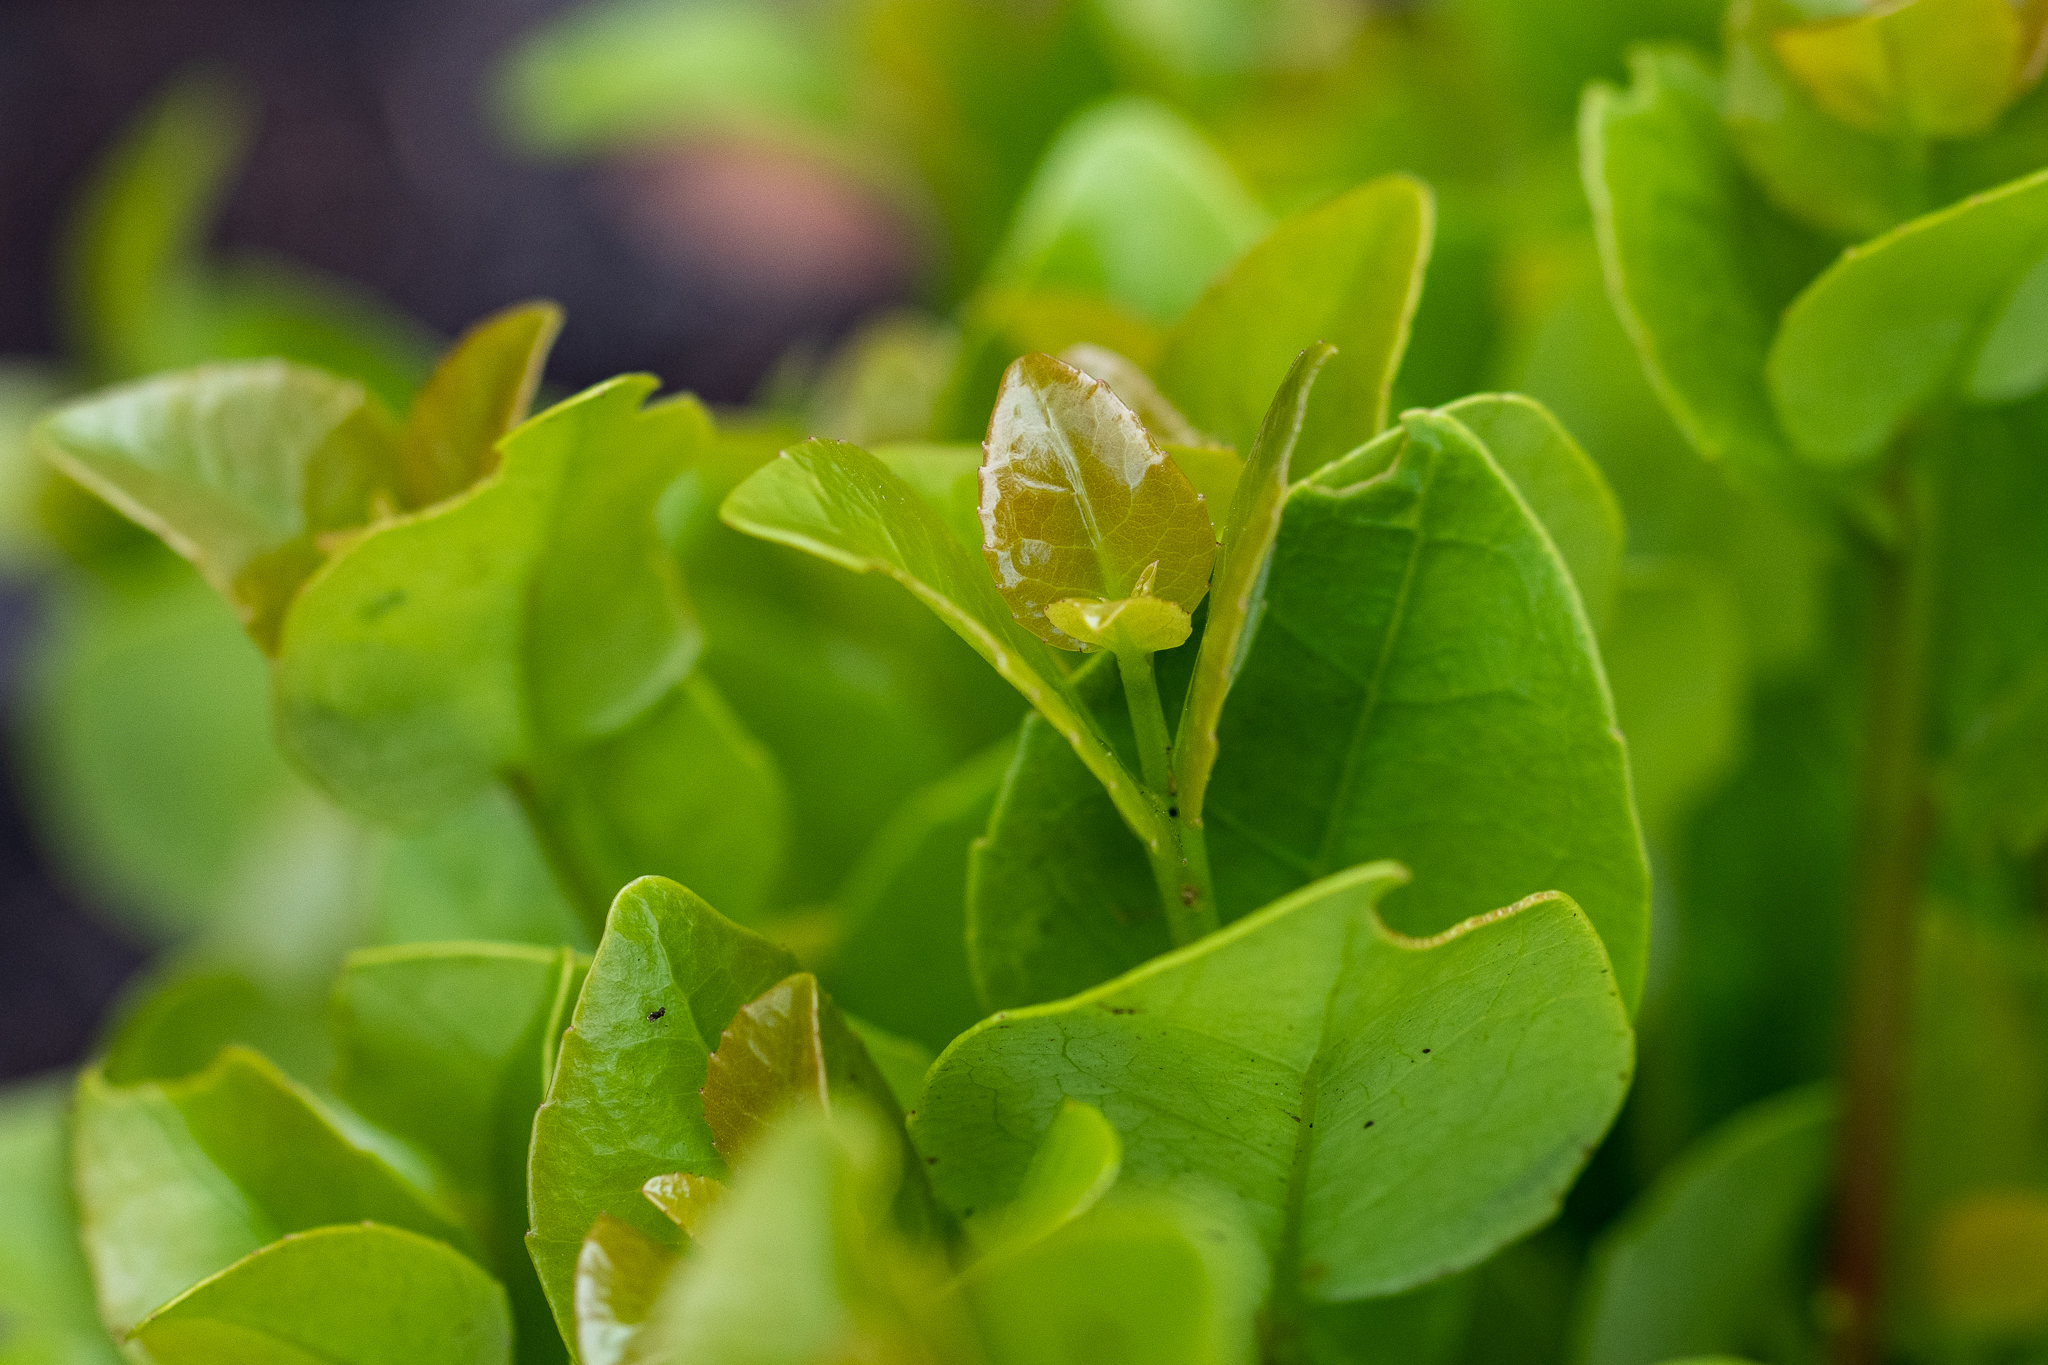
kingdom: Plantae
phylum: Tracheophyta
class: Magnoliopsida
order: Celastrales
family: Celastraceae
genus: Cassine
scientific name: Cassine peragua
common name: Cape saffron
